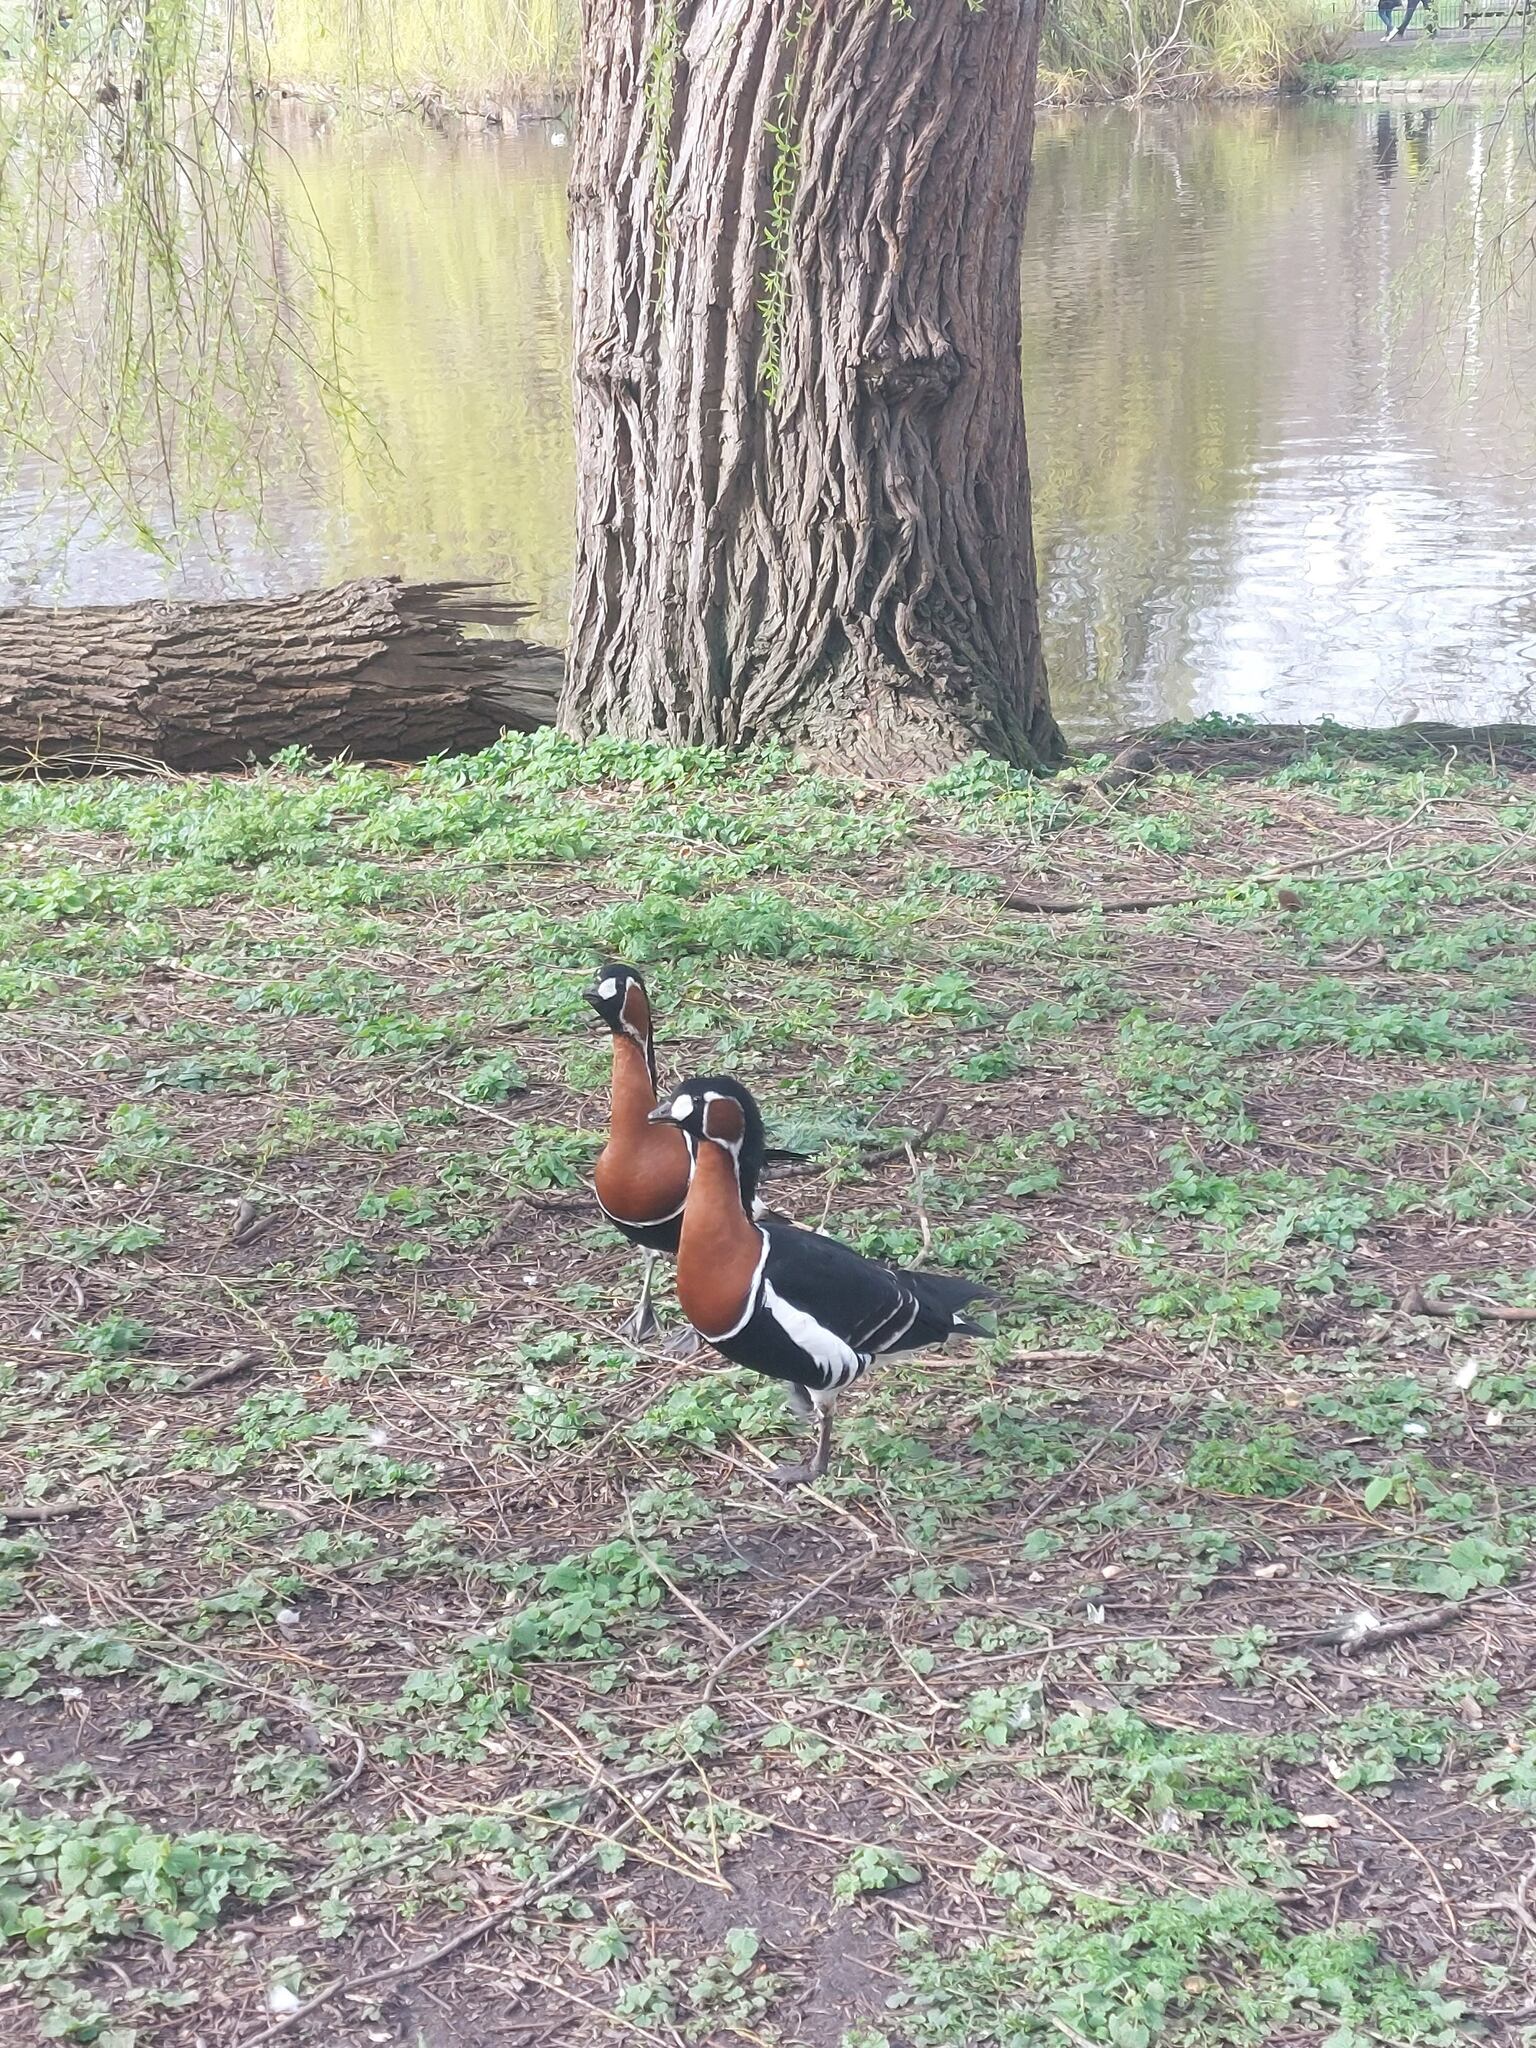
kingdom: Animalia
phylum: Chordata
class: Aves
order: Anseriformes
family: Anatidae
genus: Branta
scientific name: Branta ruficollis
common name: Red-breasted goose
